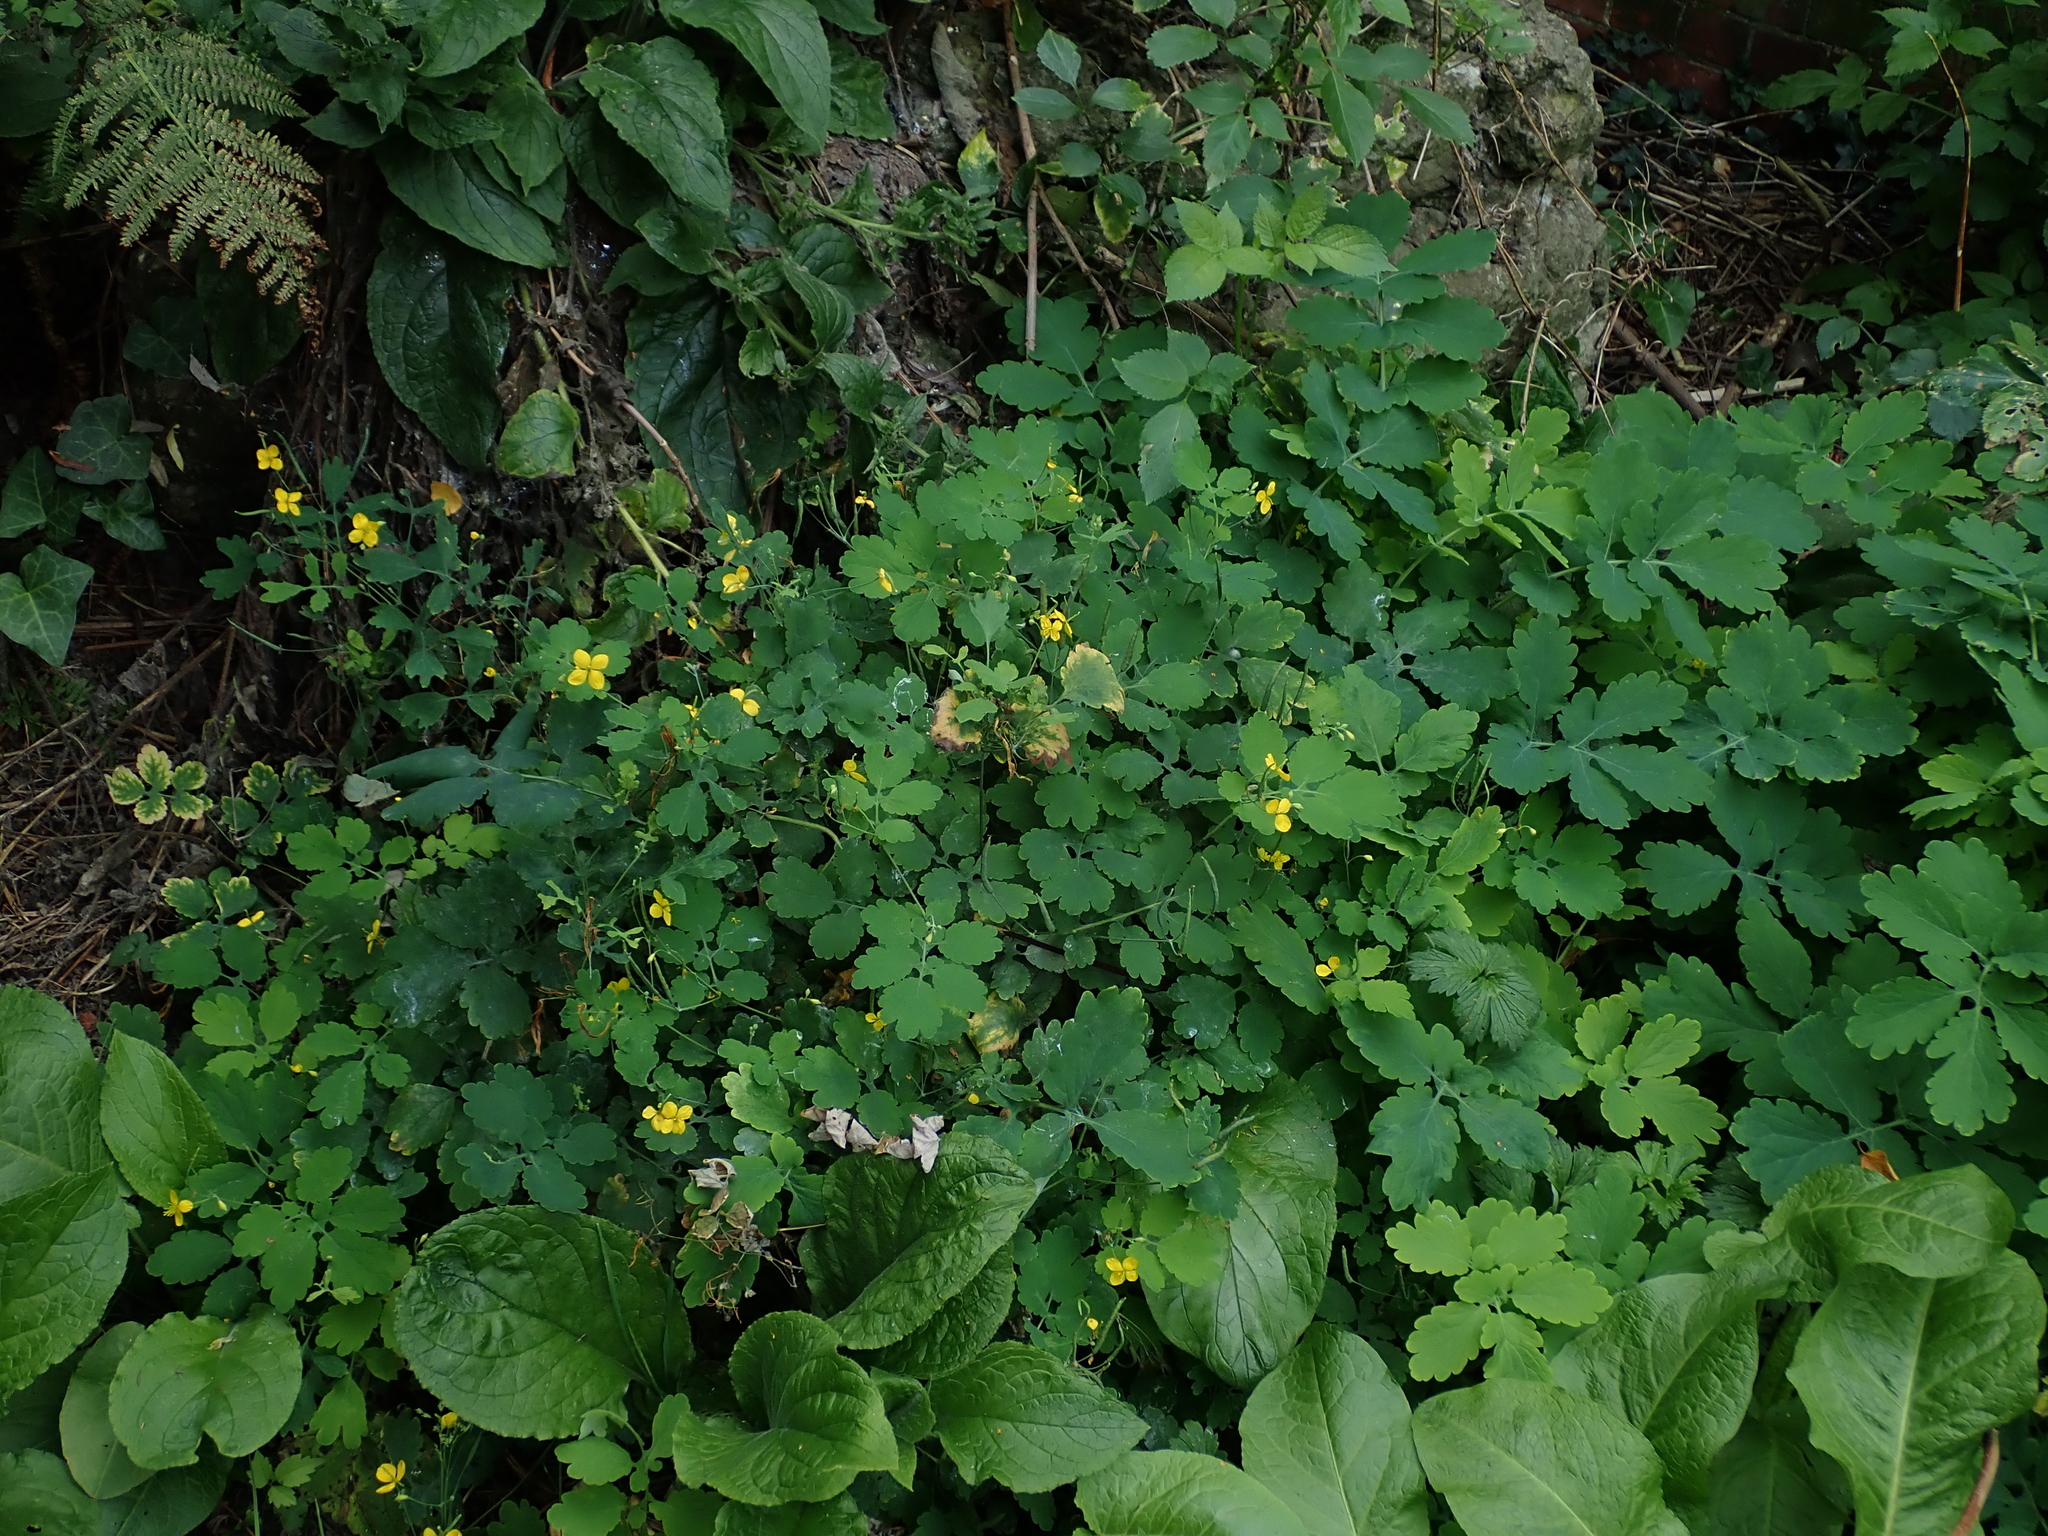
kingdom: Plantae
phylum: Tracheophyta
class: Magnoliopsida
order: Ranunculales
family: Papaveraceae
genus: Chelidonium
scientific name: Chelidonium majus
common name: Greater celandine
